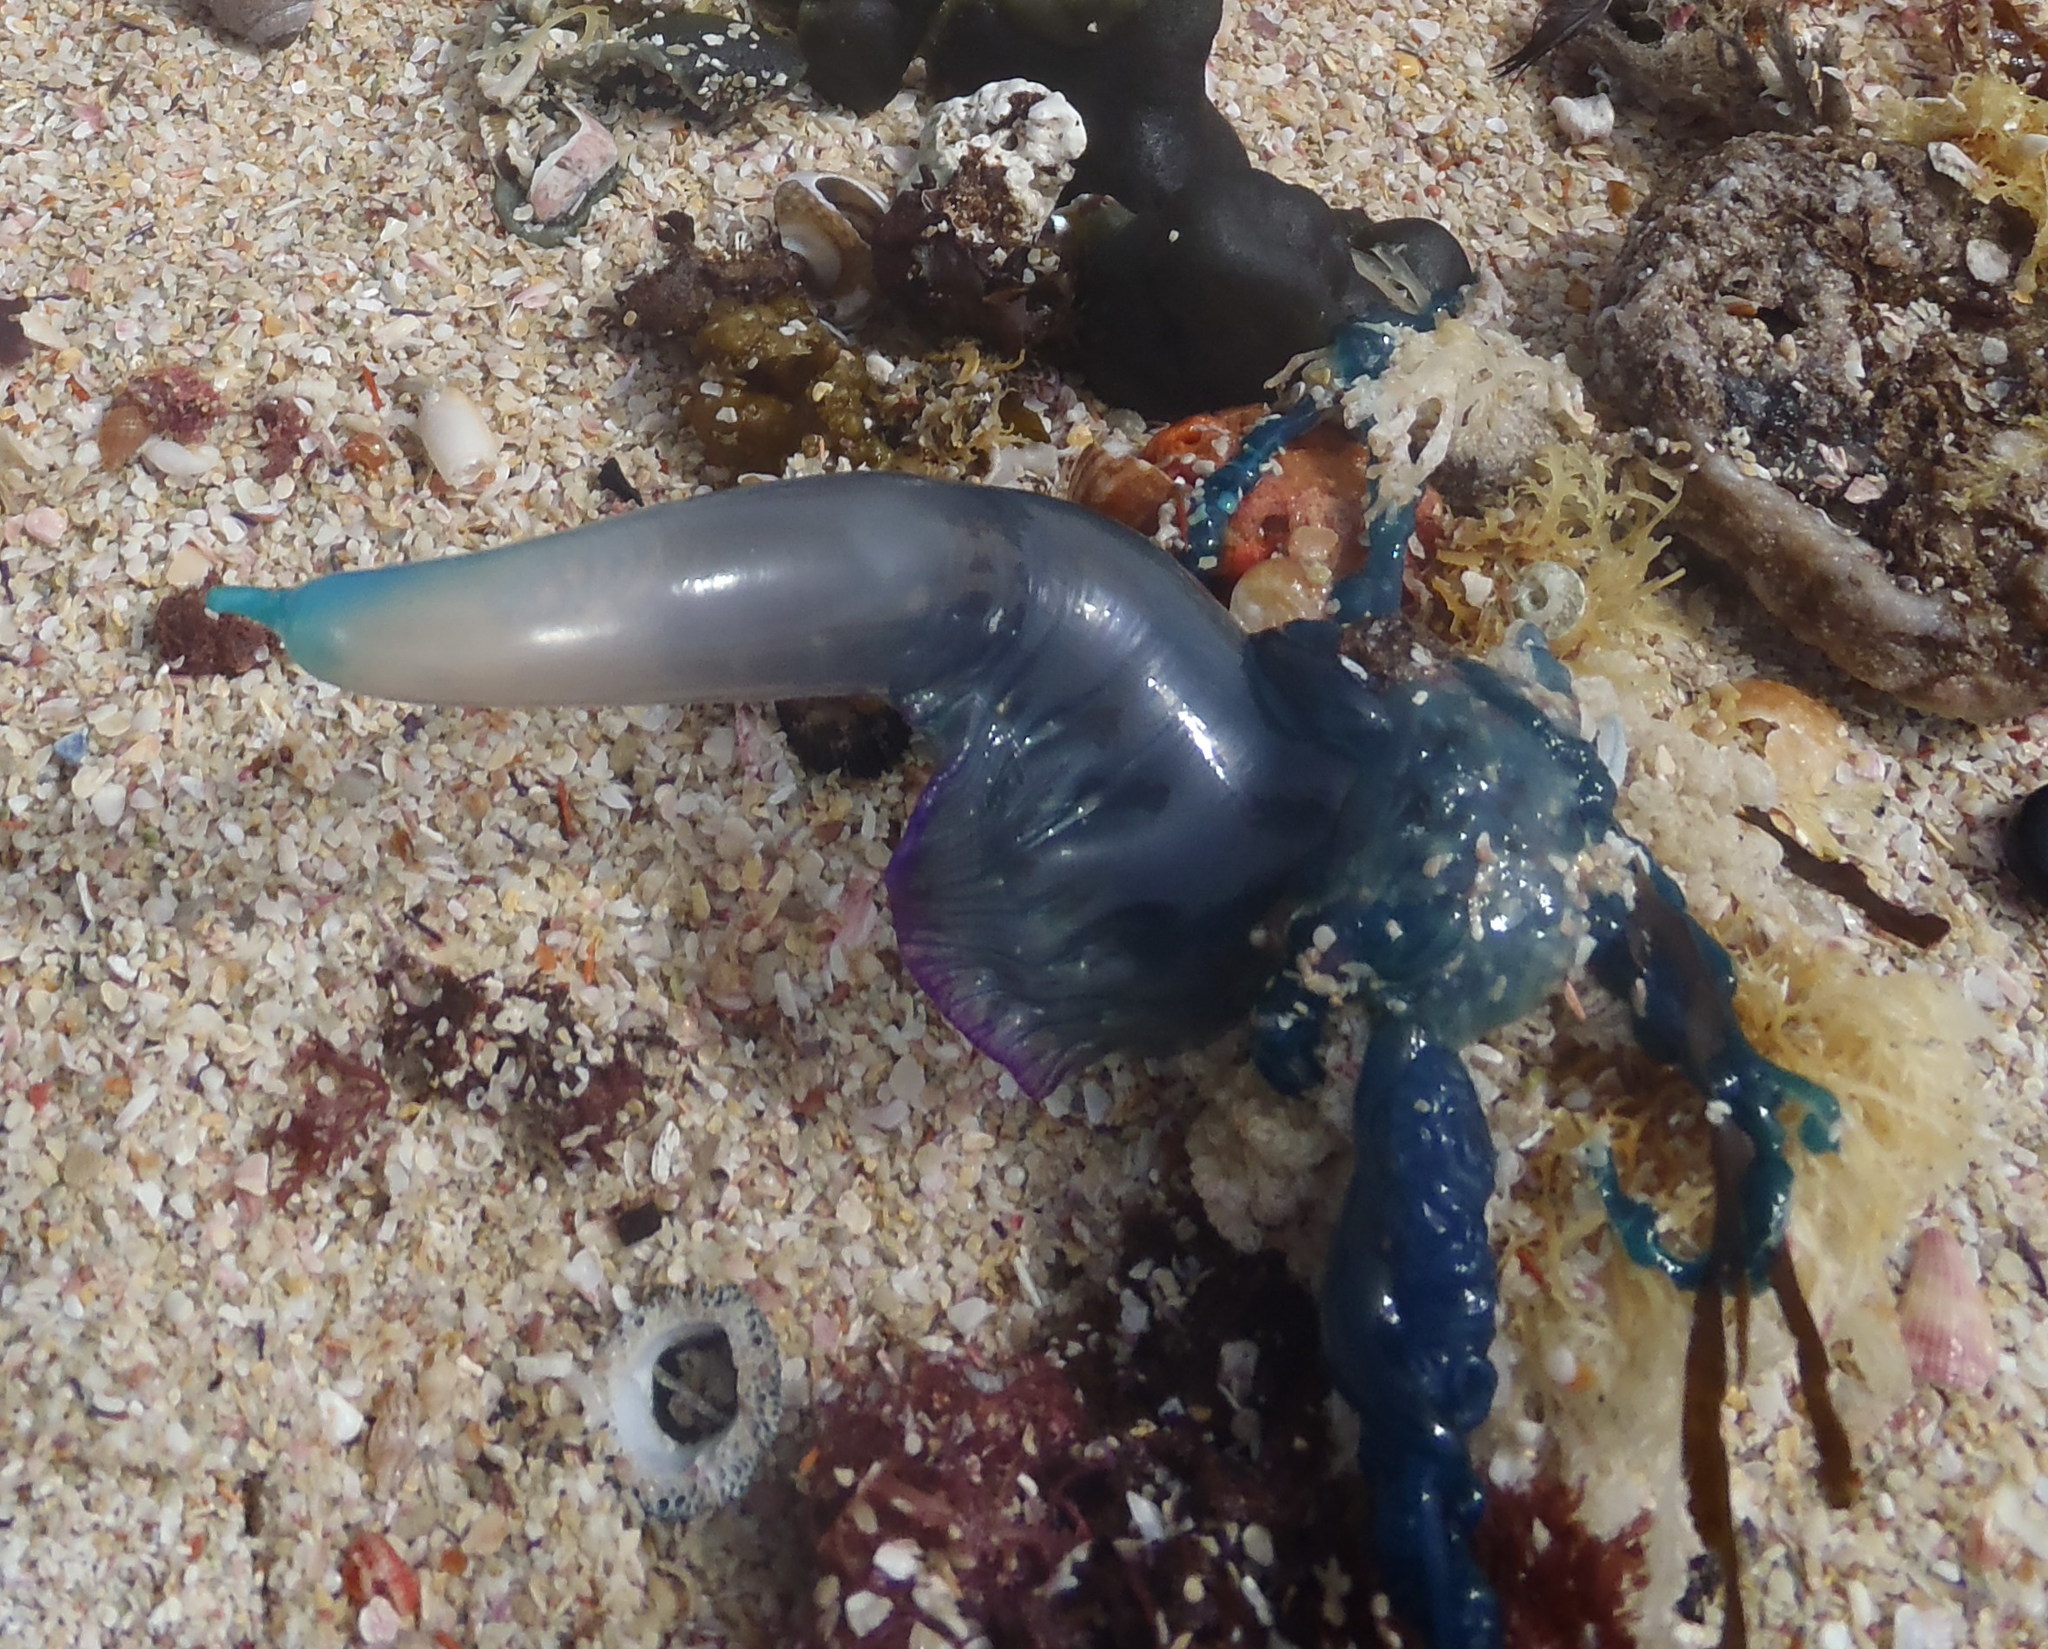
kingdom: Animalia
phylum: Cnidaria
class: Hydrozoa
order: Siphonophorae
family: Physaliidae
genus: Physalia
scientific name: Physalia physalis
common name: Portuguese man-of-war
